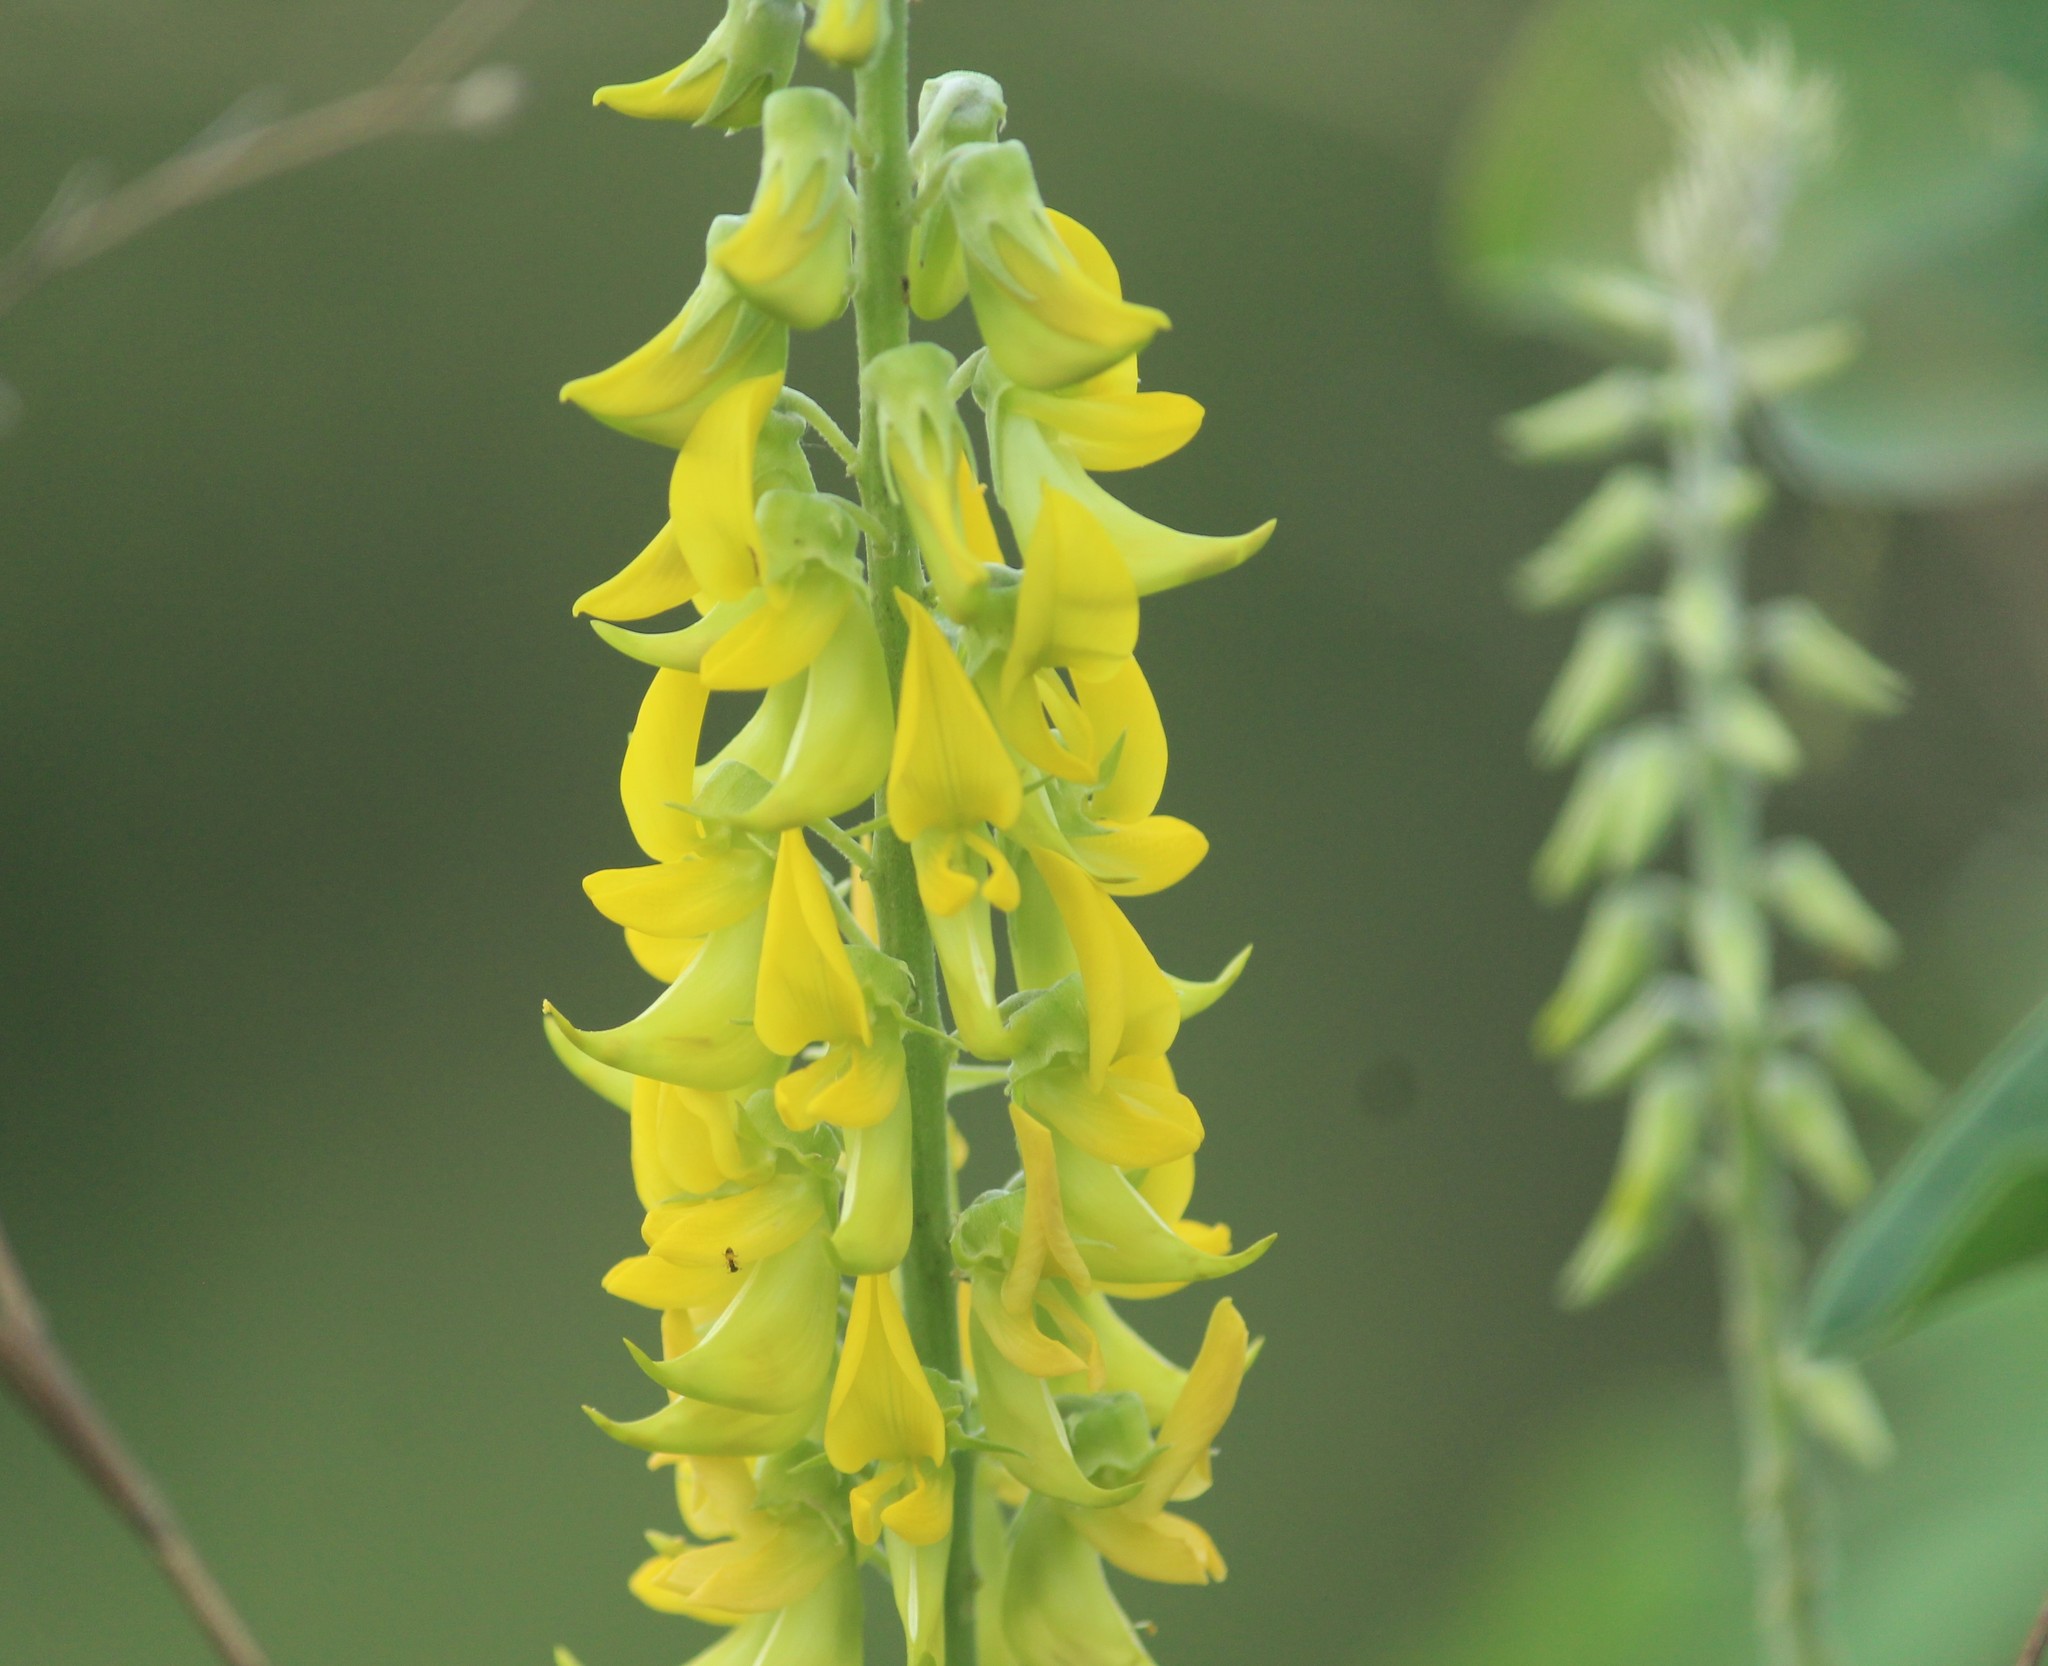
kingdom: Plantae
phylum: Tracheophyta
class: Magnoliopsida
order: Fabales
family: Fabaceae
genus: Crotalaria
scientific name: Crotalaria pallida
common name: Smooth rattlebox
